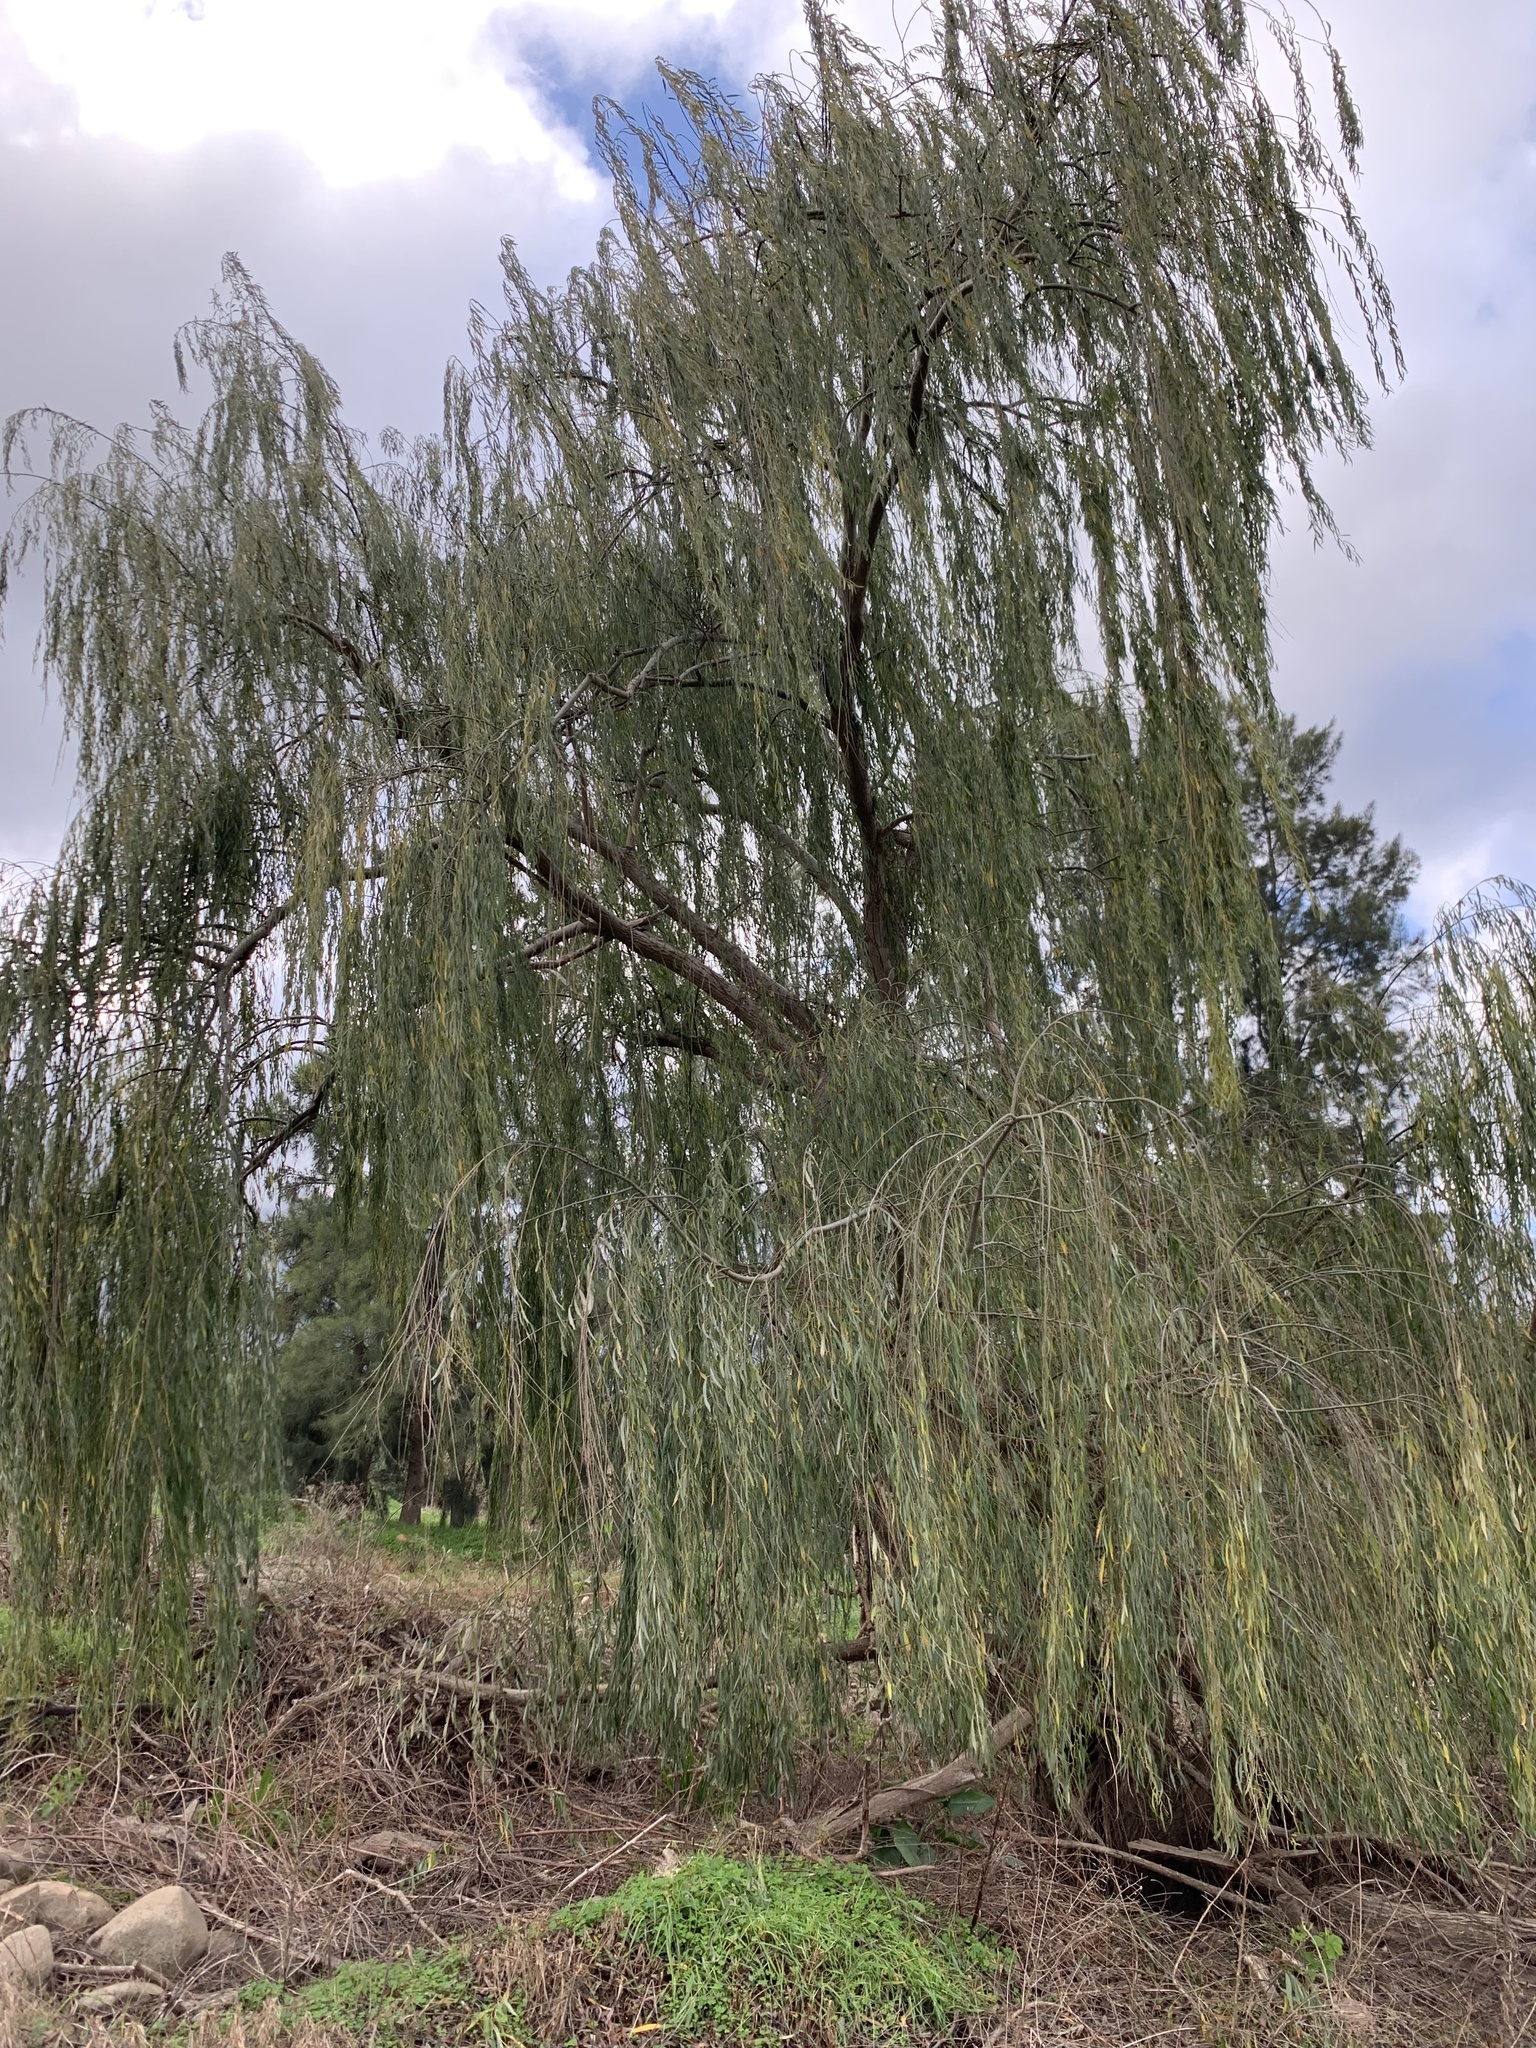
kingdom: Plantae
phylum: Tracheophyta
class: Magnoliopsida
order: Malpighiales
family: Salicaceae
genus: Salix
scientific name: Salix babylonica
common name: Weeping willow
